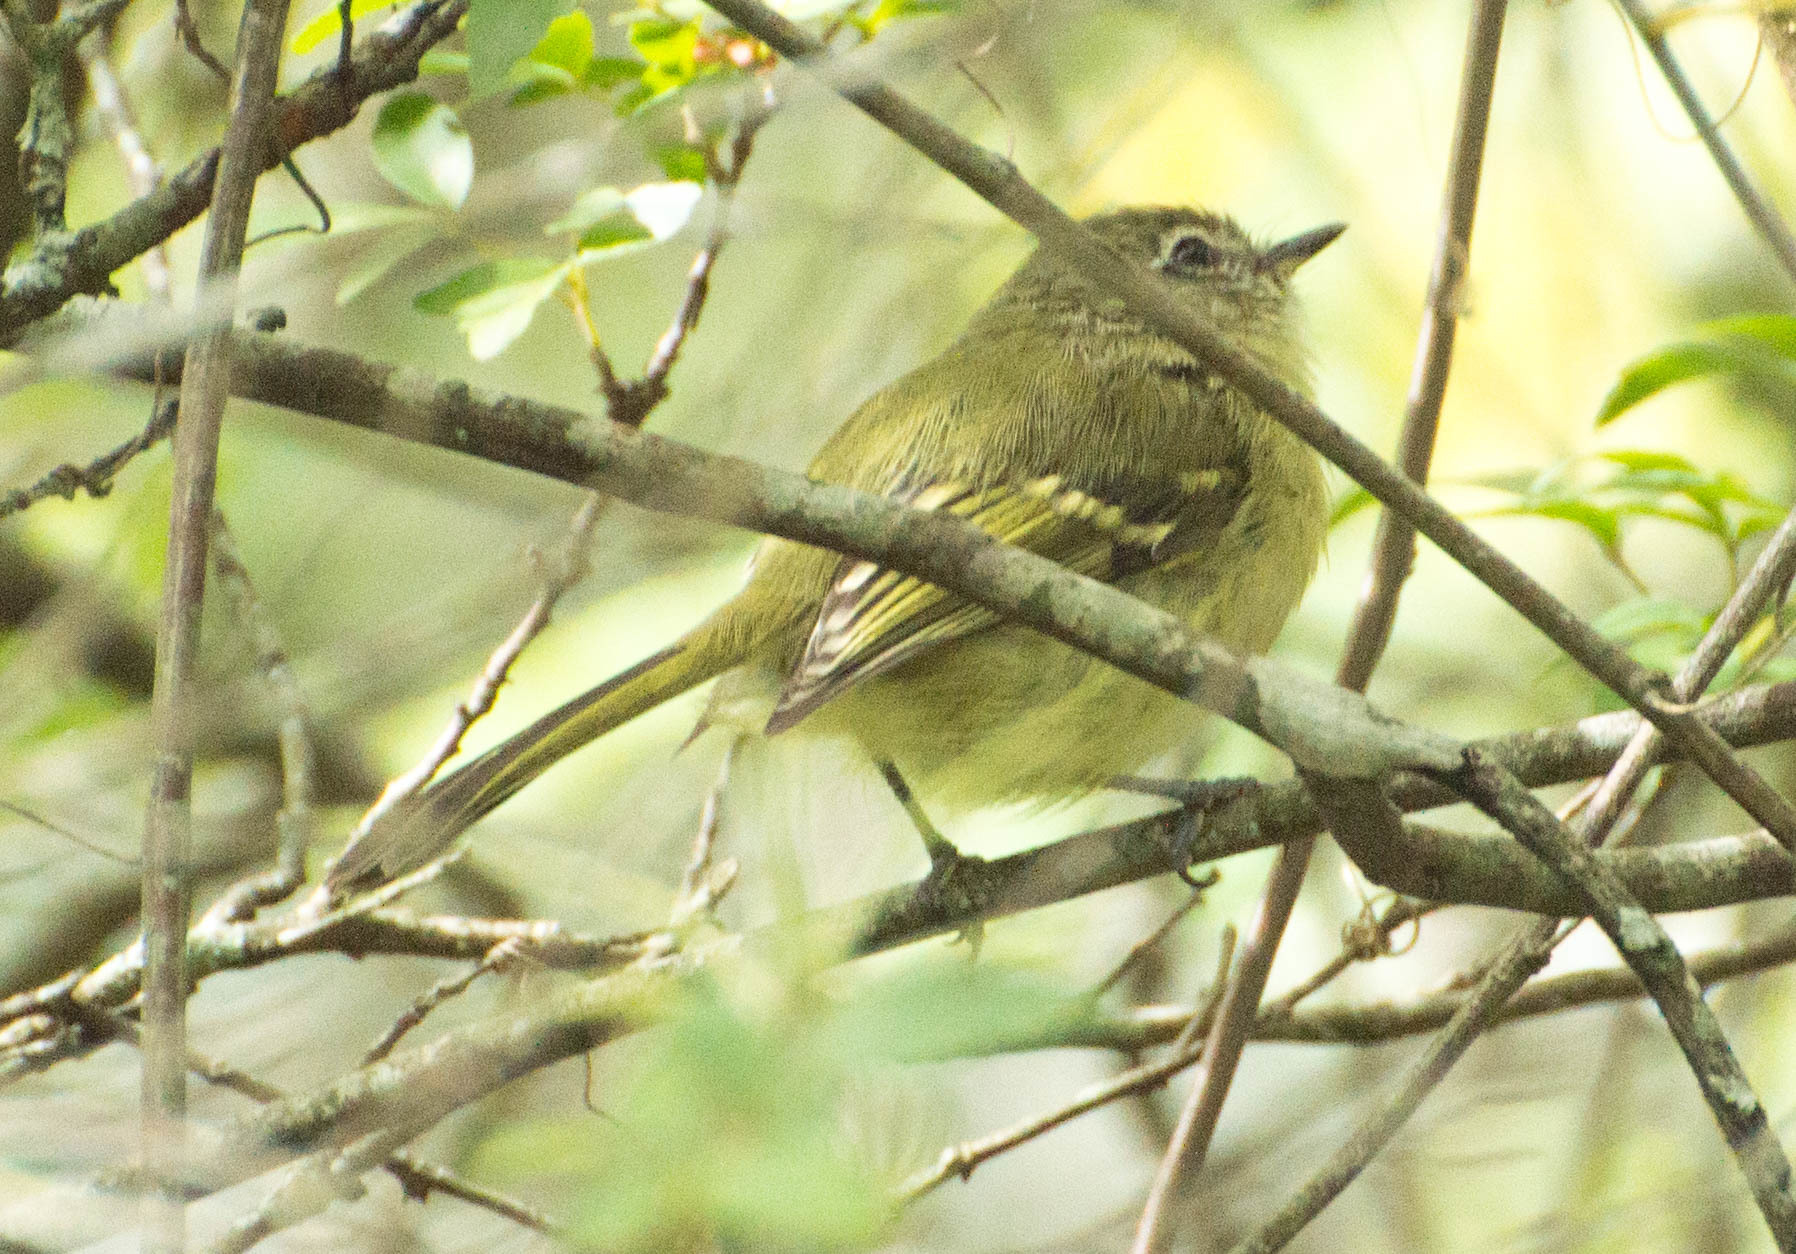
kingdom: Animalia
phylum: Chordata
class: Aves
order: Passeriformes
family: Tyrannidae
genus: Phylloscartes
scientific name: Phylloscartes ventralis
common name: Mottle-cheeked tyrannulet
